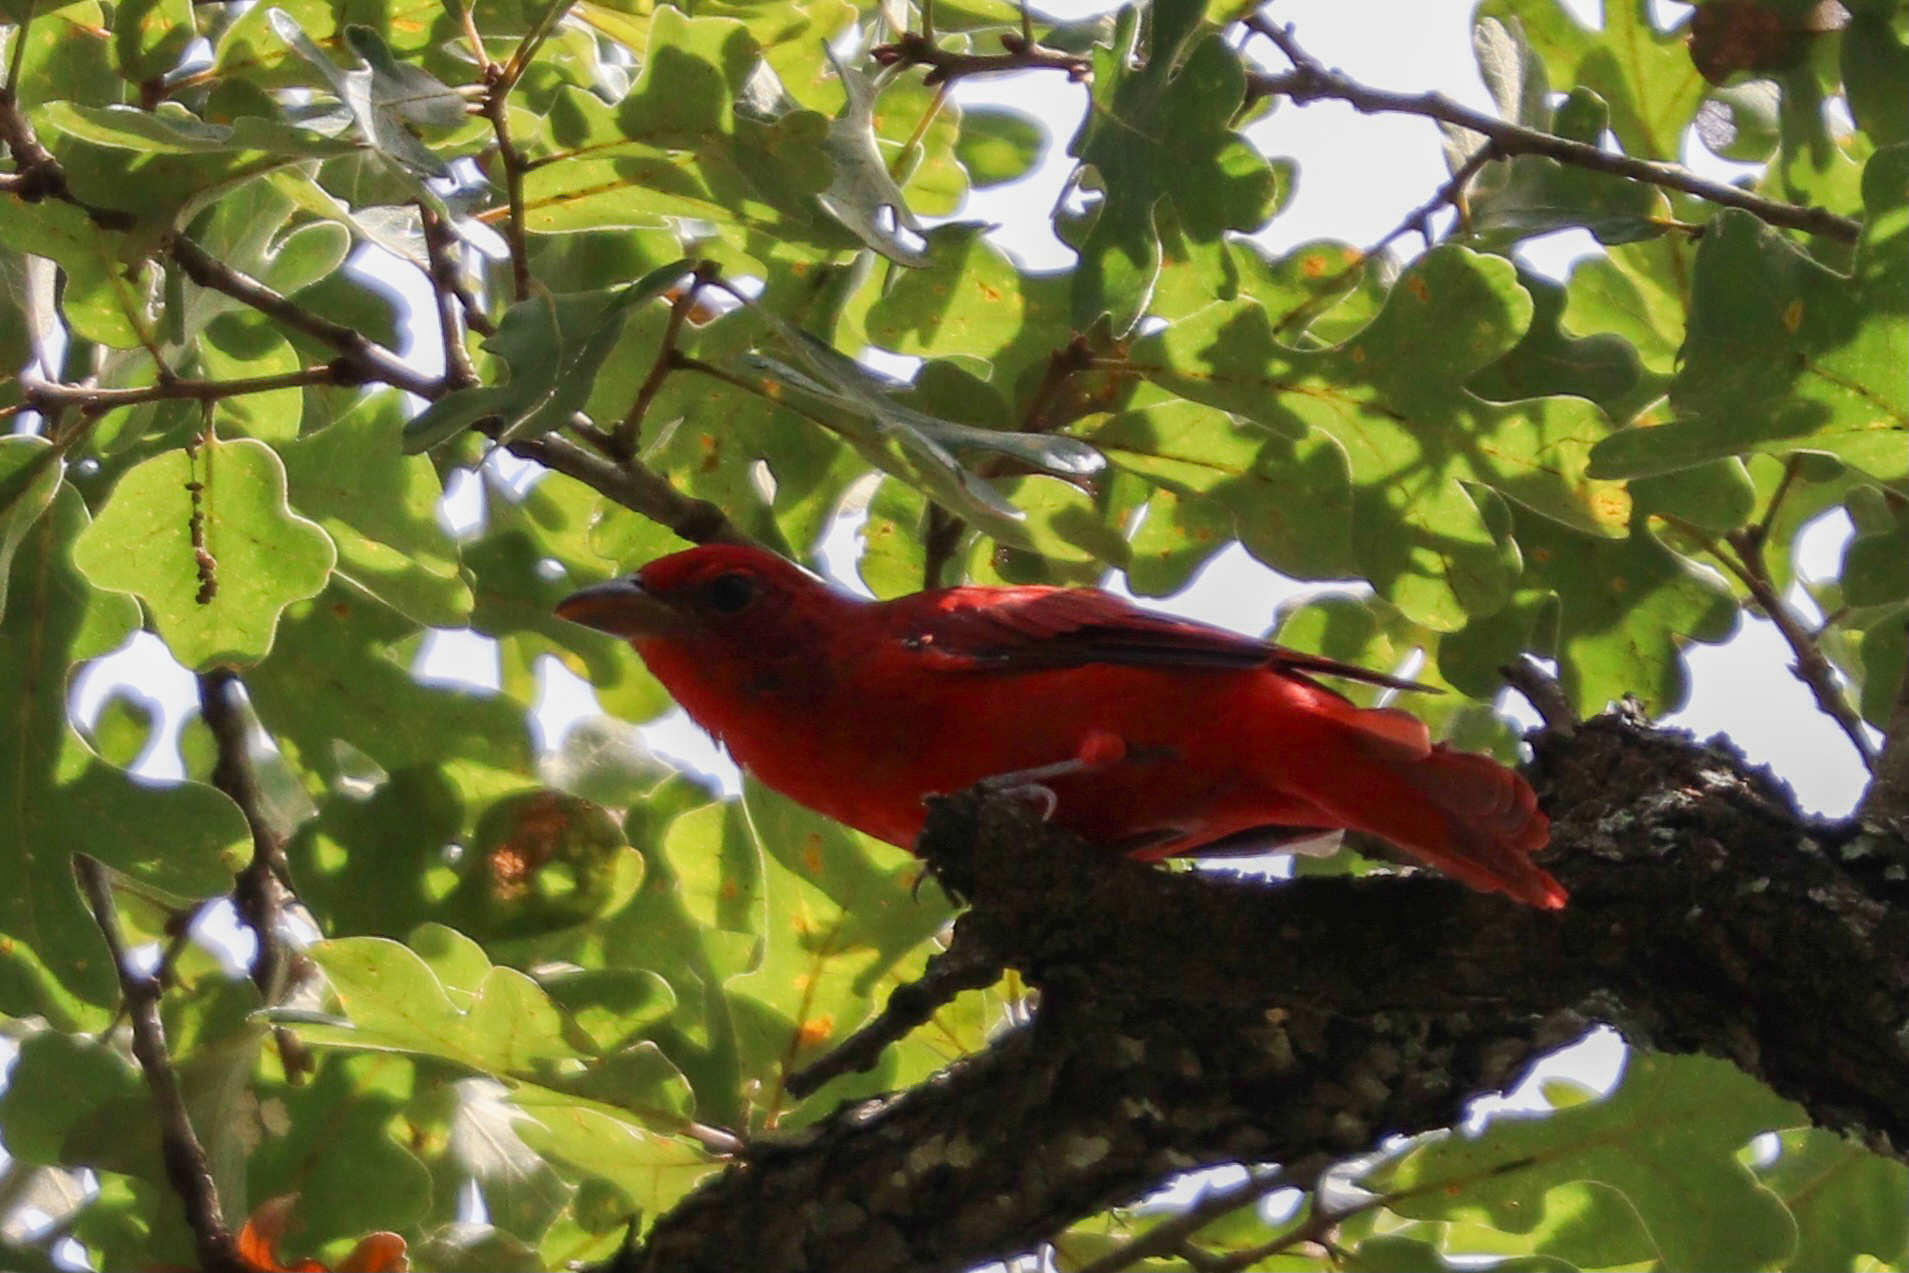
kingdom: Animalia
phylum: Chordata
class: Aves
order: Passeriformes
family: Cardinalidae
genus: Piranga
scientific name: Piranga rubra
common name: Summer tanager
